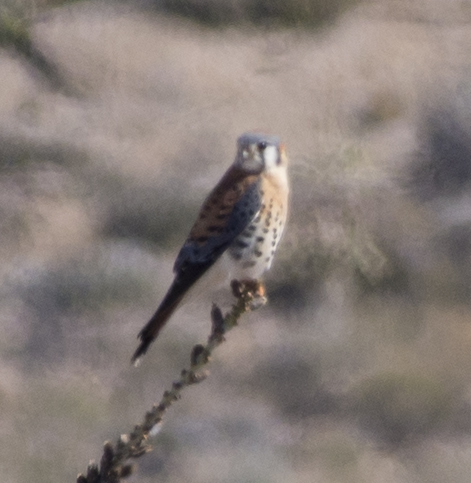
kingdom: Animalia
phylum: Chordata
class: Aves
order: Falconiformes
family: Falconidae
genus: Falco
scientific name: Falco sparverius
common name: American kestrel
